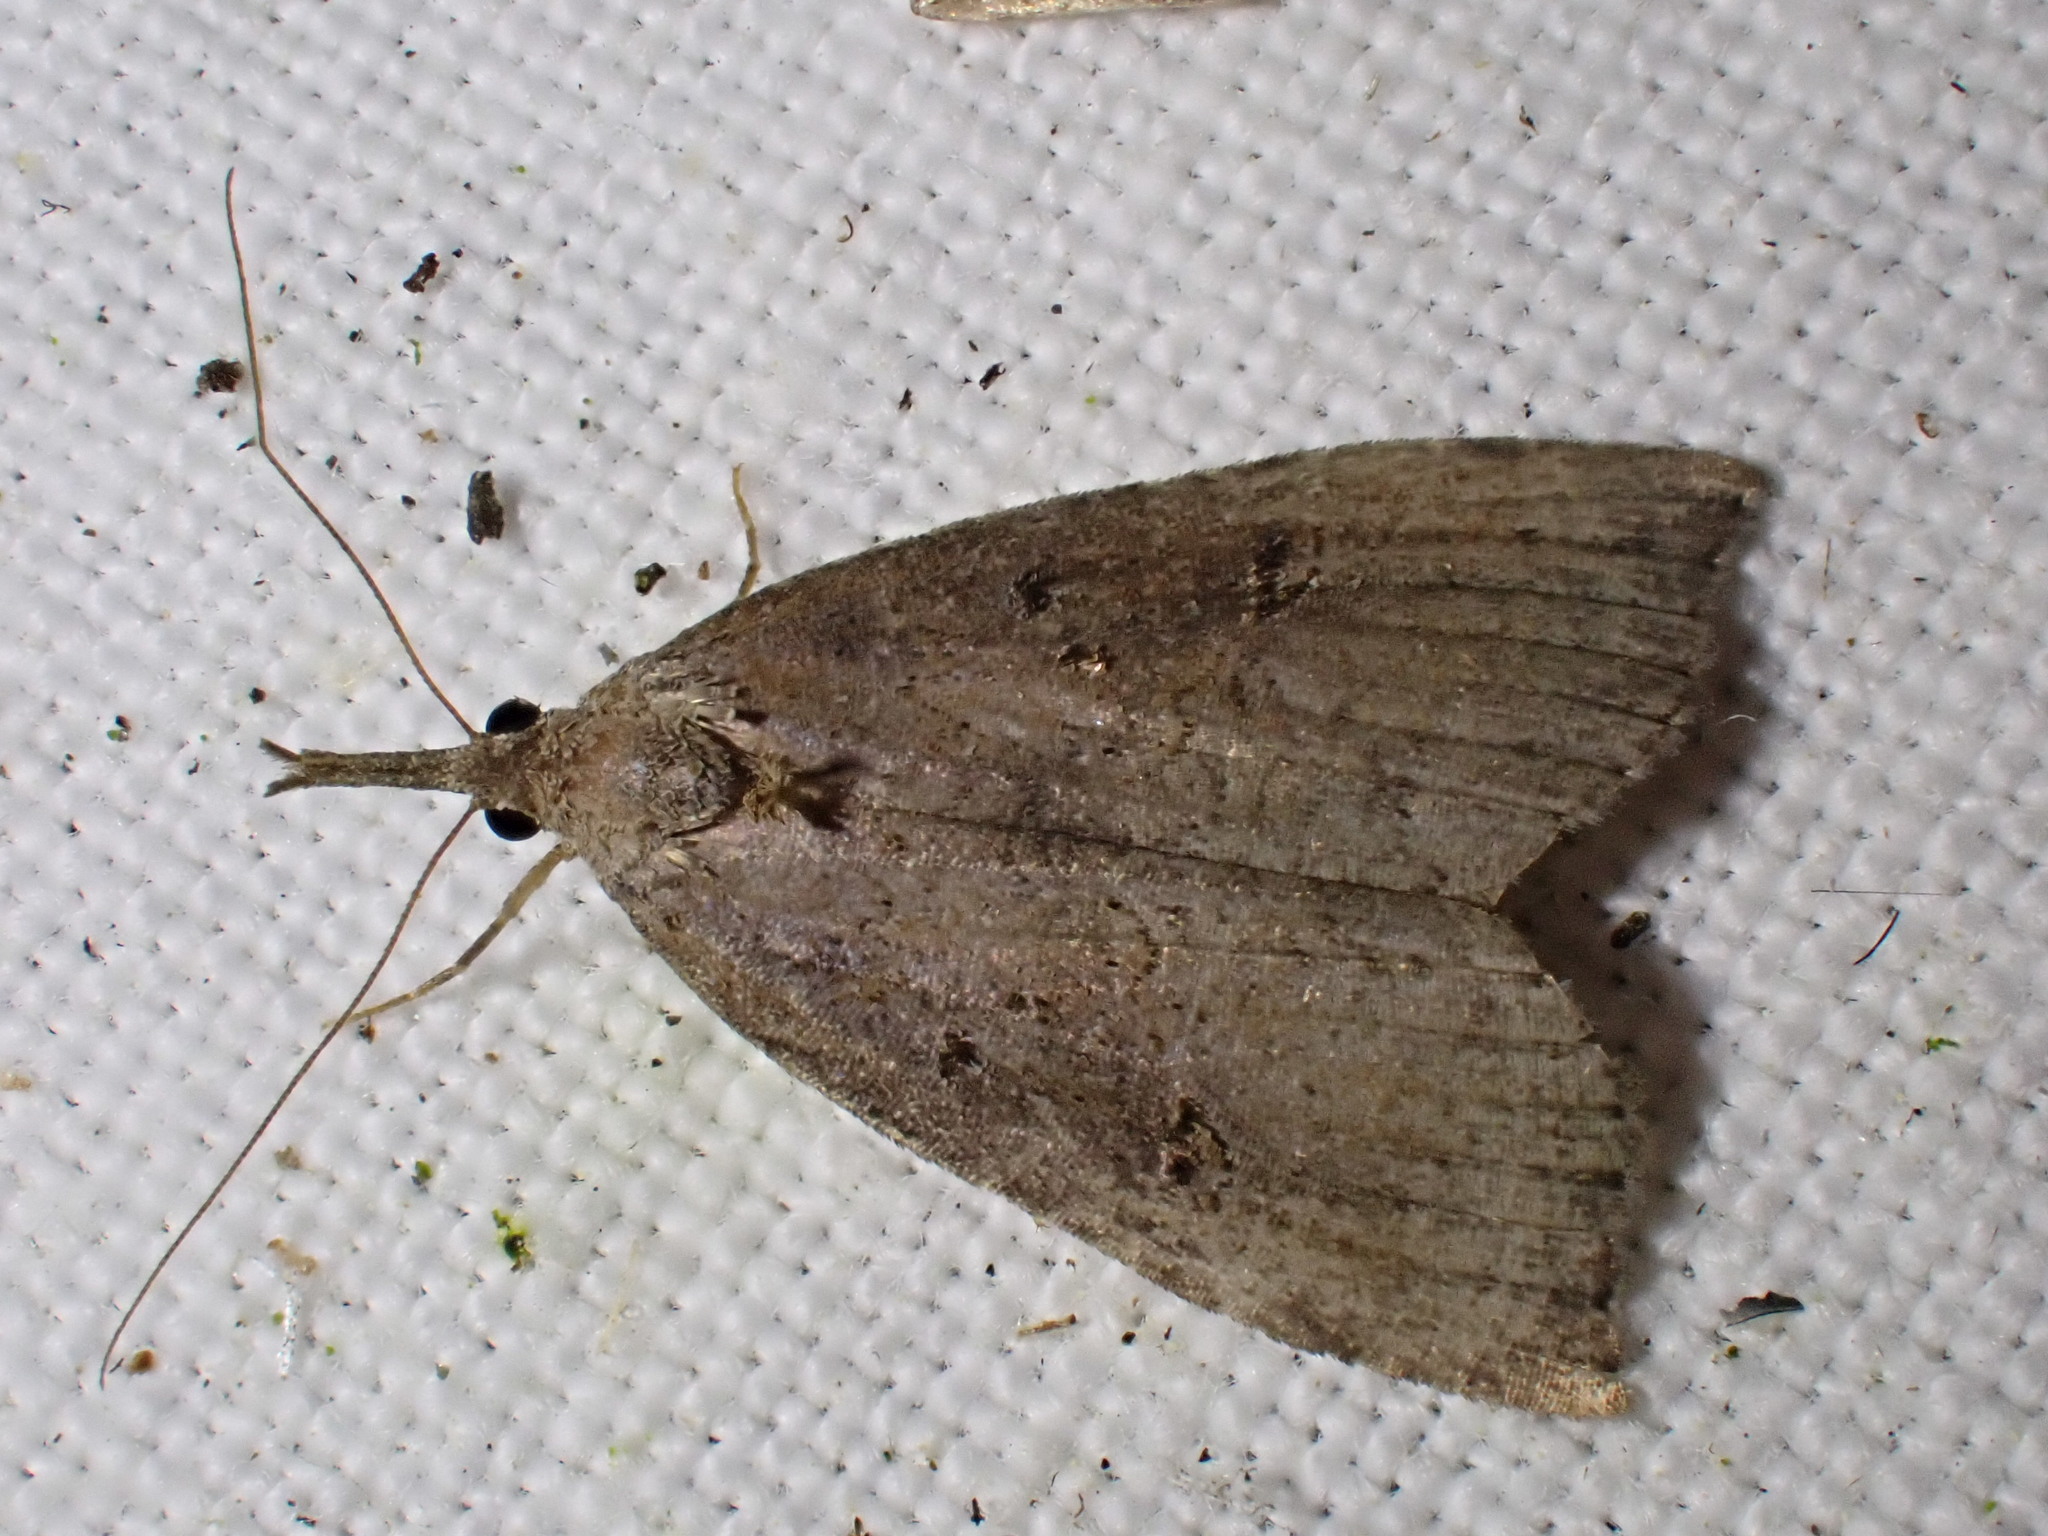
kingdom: Animalia
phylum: Arthropoda
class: Insecta
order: Lepidoptera
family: Erebidae
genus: Hypena
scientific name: Hypena rostralis
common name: Buttoned snout
